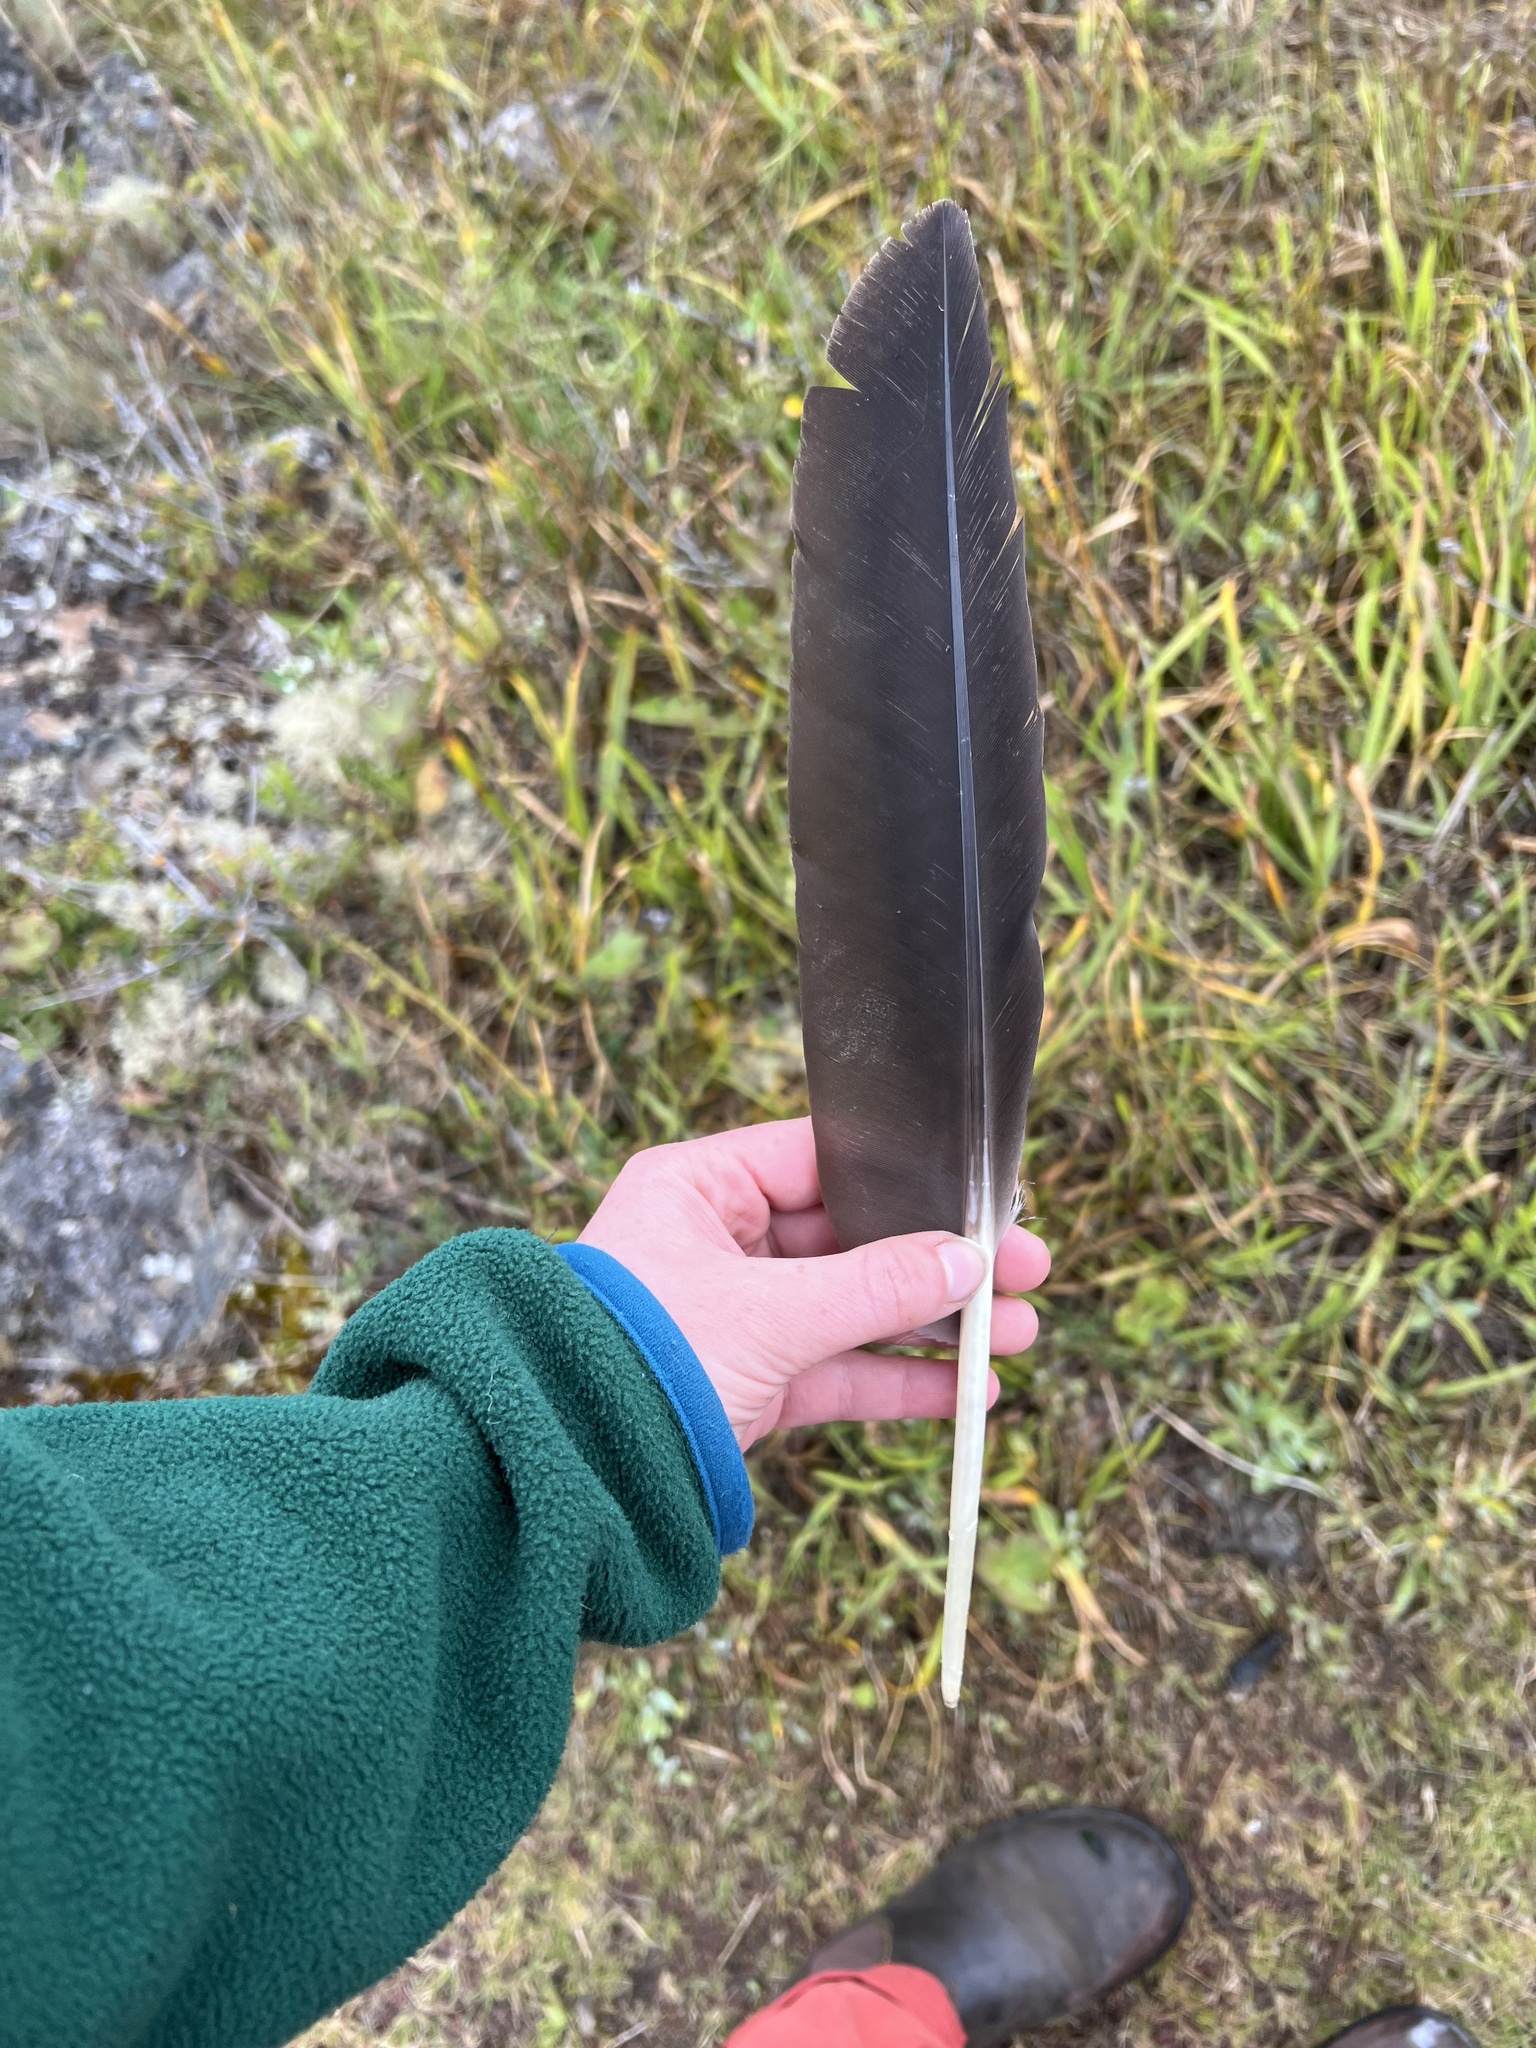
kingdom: Animalia
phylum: Chordata
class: Aves
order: Anseriformes
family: Anatidae
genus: Branta
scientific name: Branta canadensis
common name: Canada goose
